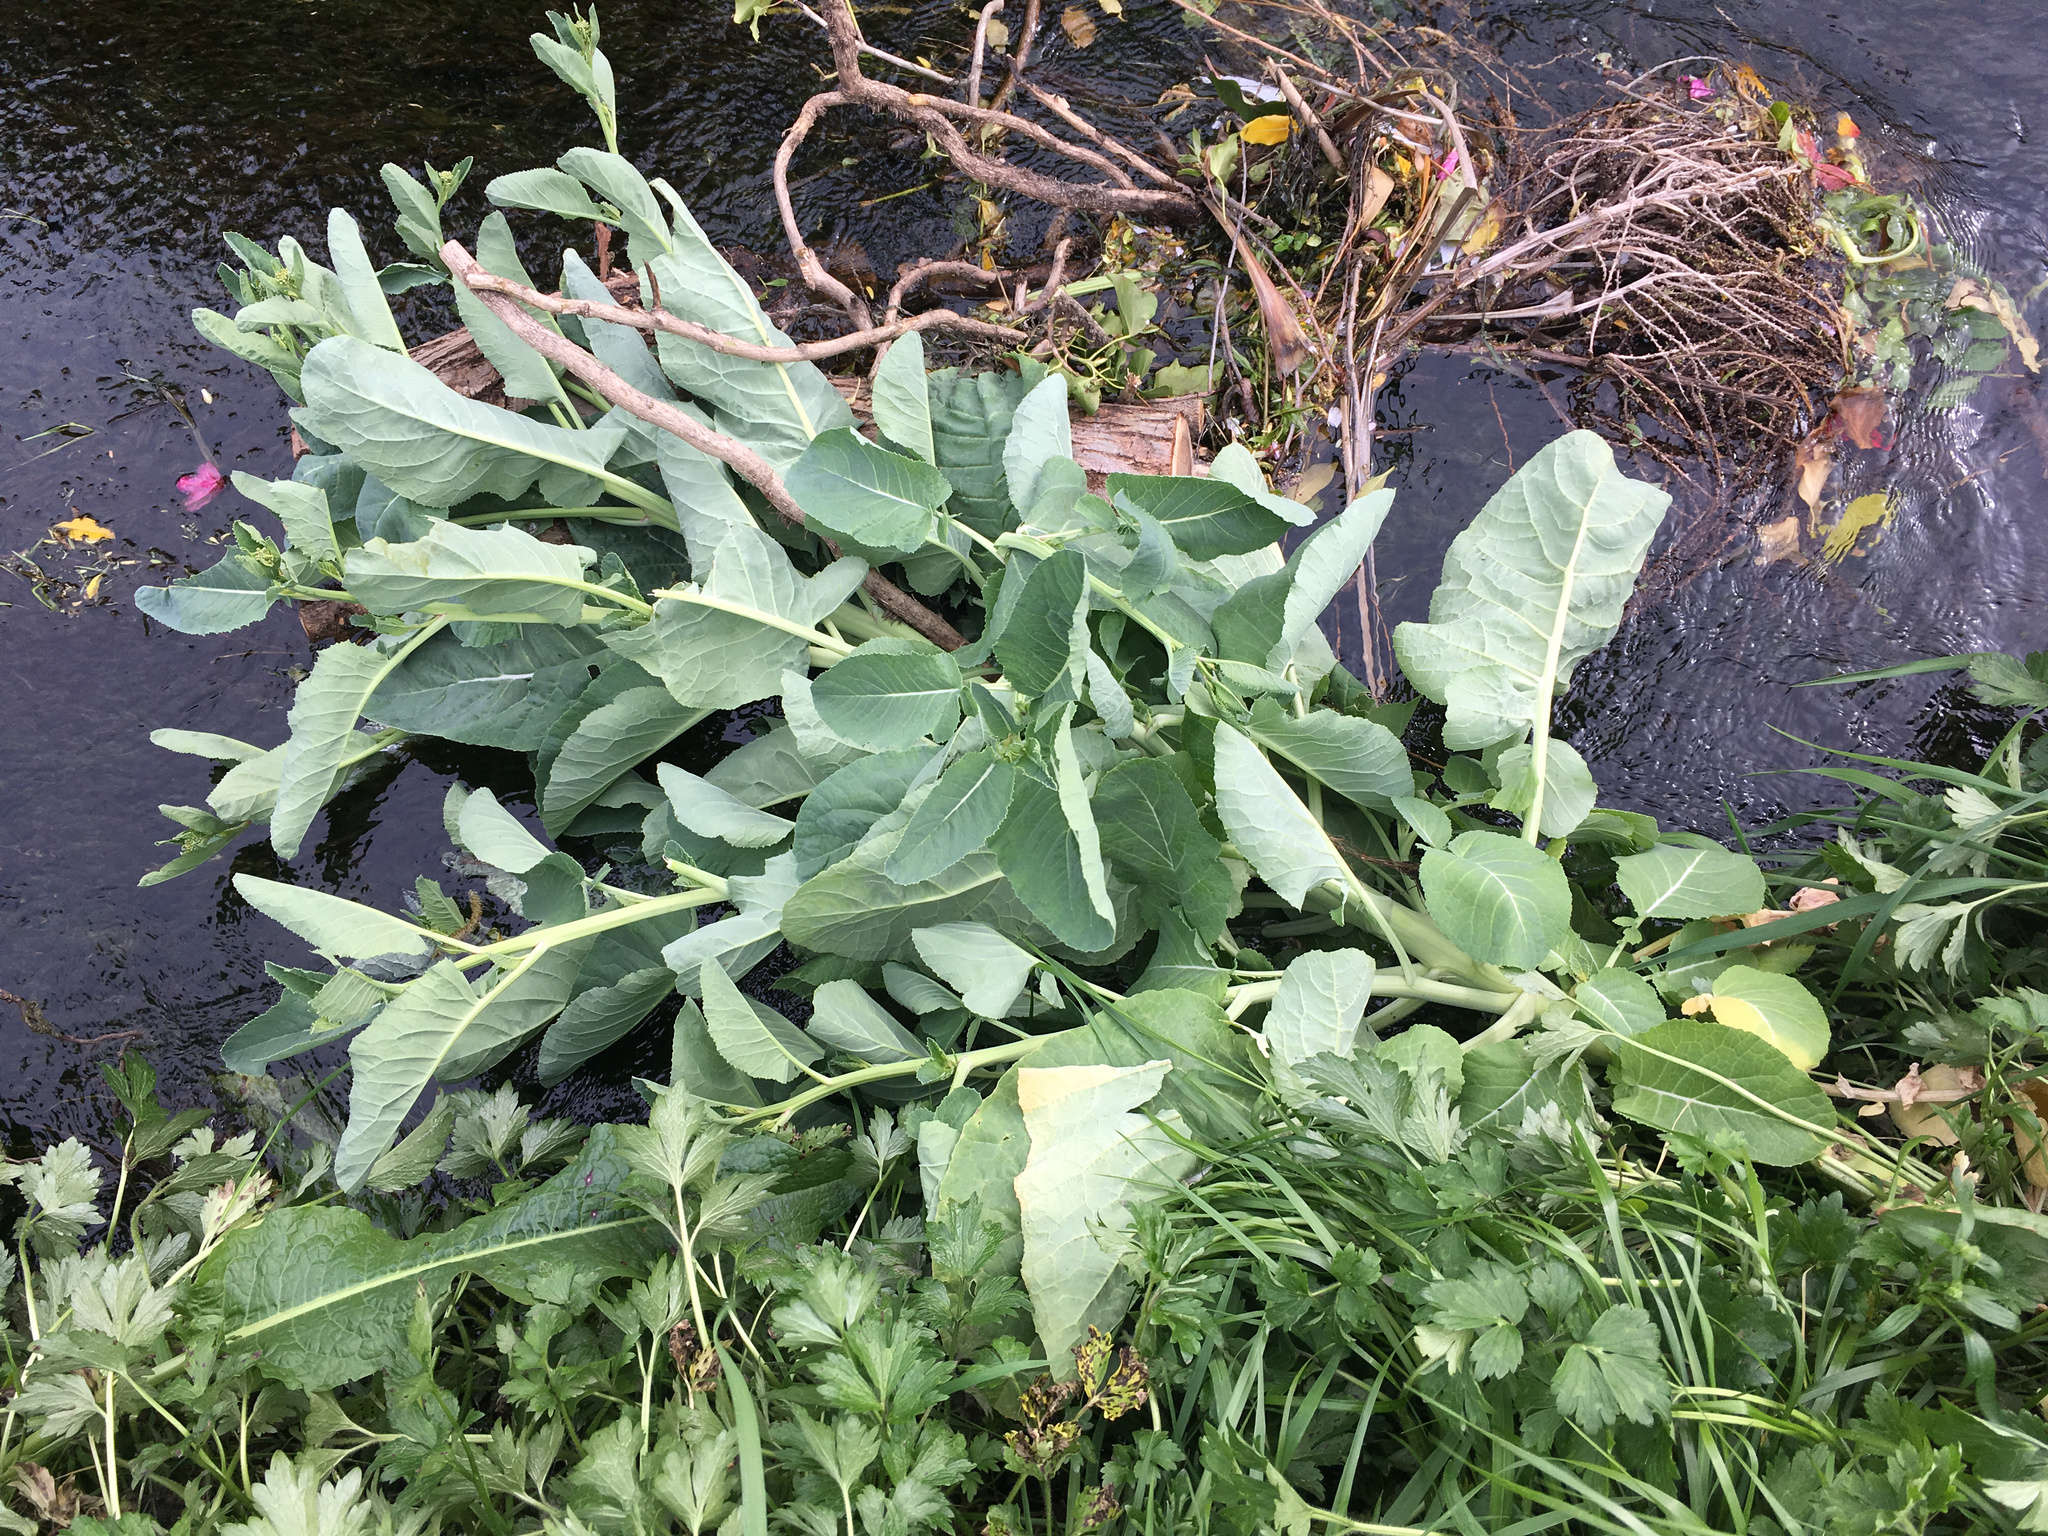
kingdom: Plantae
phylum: Tracheophyta
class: Magnoliopsida
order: Brassicales
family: Brassicaceae
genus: Brassica
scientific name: Brassica oleracea
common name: Cabbage
